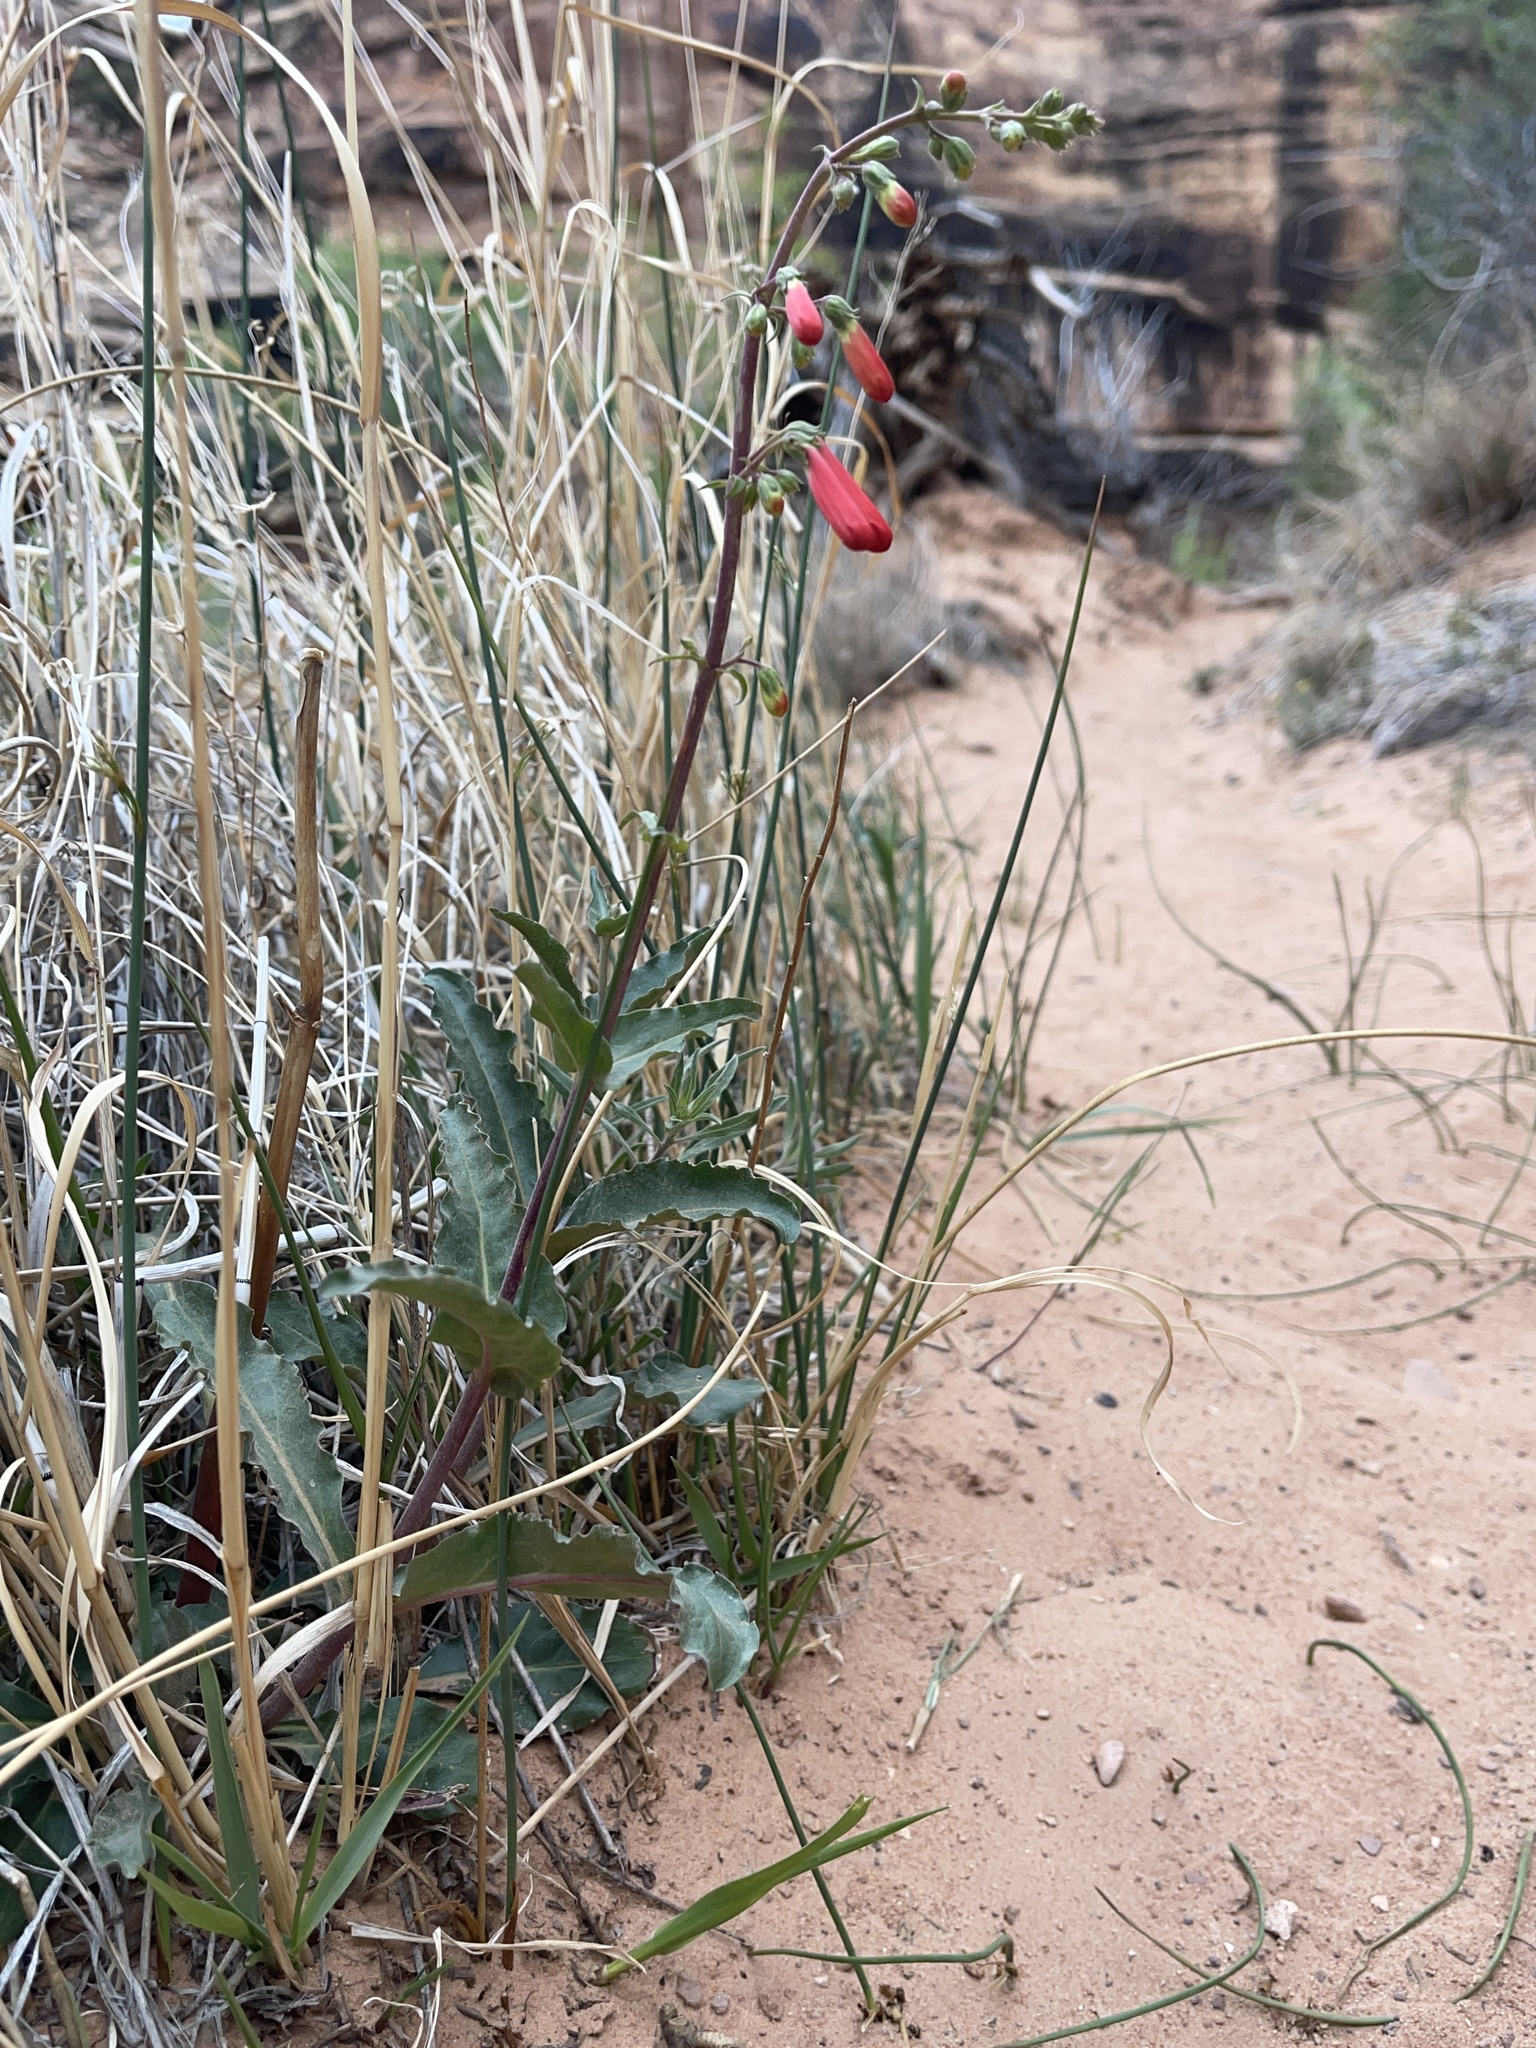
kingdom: Plantae
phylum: Tracheophyta
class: Magnoliopsida
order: Lamiales
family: Plantaginaceae
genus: Penstemon
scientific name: Penstemon eatonii
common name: Eaton's penstemon
